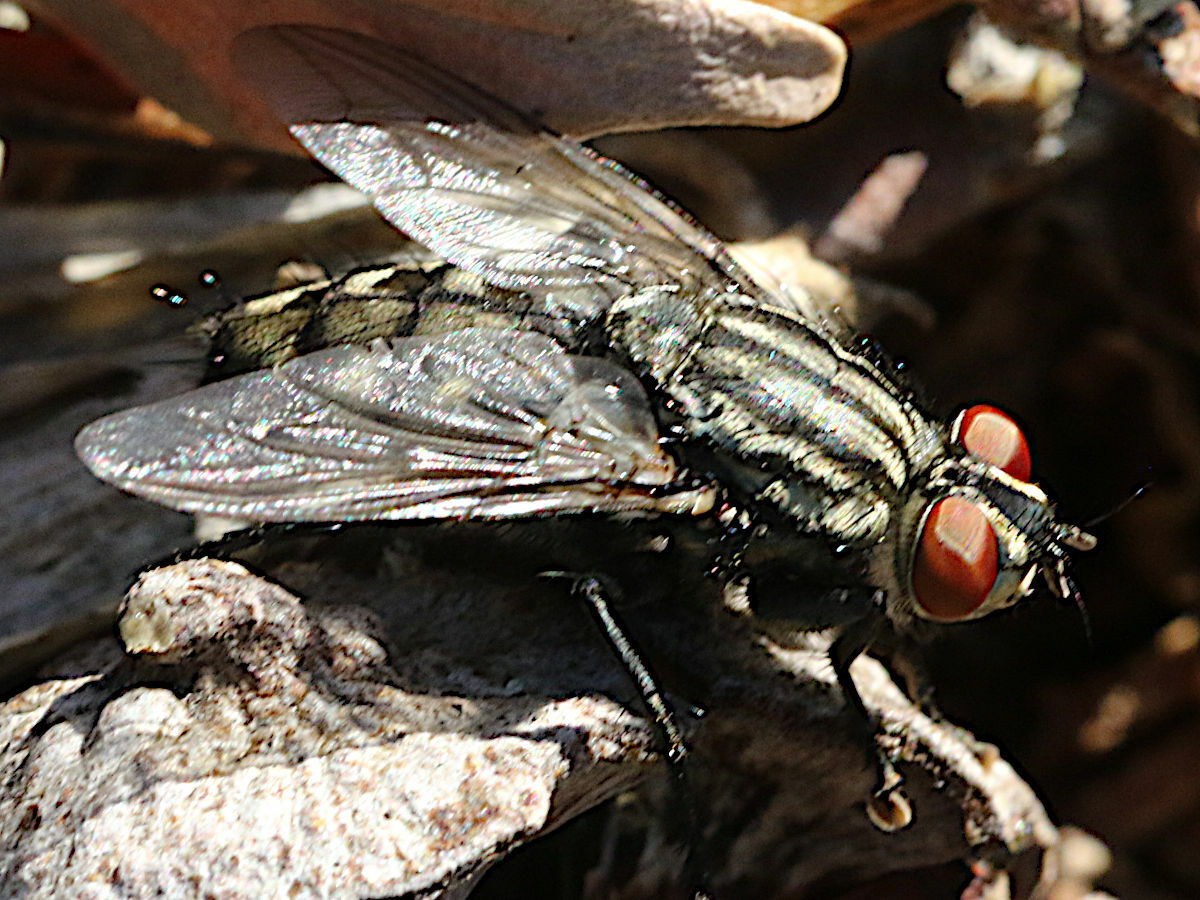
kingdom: Animalia
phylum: Arthropoda
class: Insecta
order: Diptera
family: Sarcophagidae
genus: Sarcophaga
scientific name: Sarcophaga
